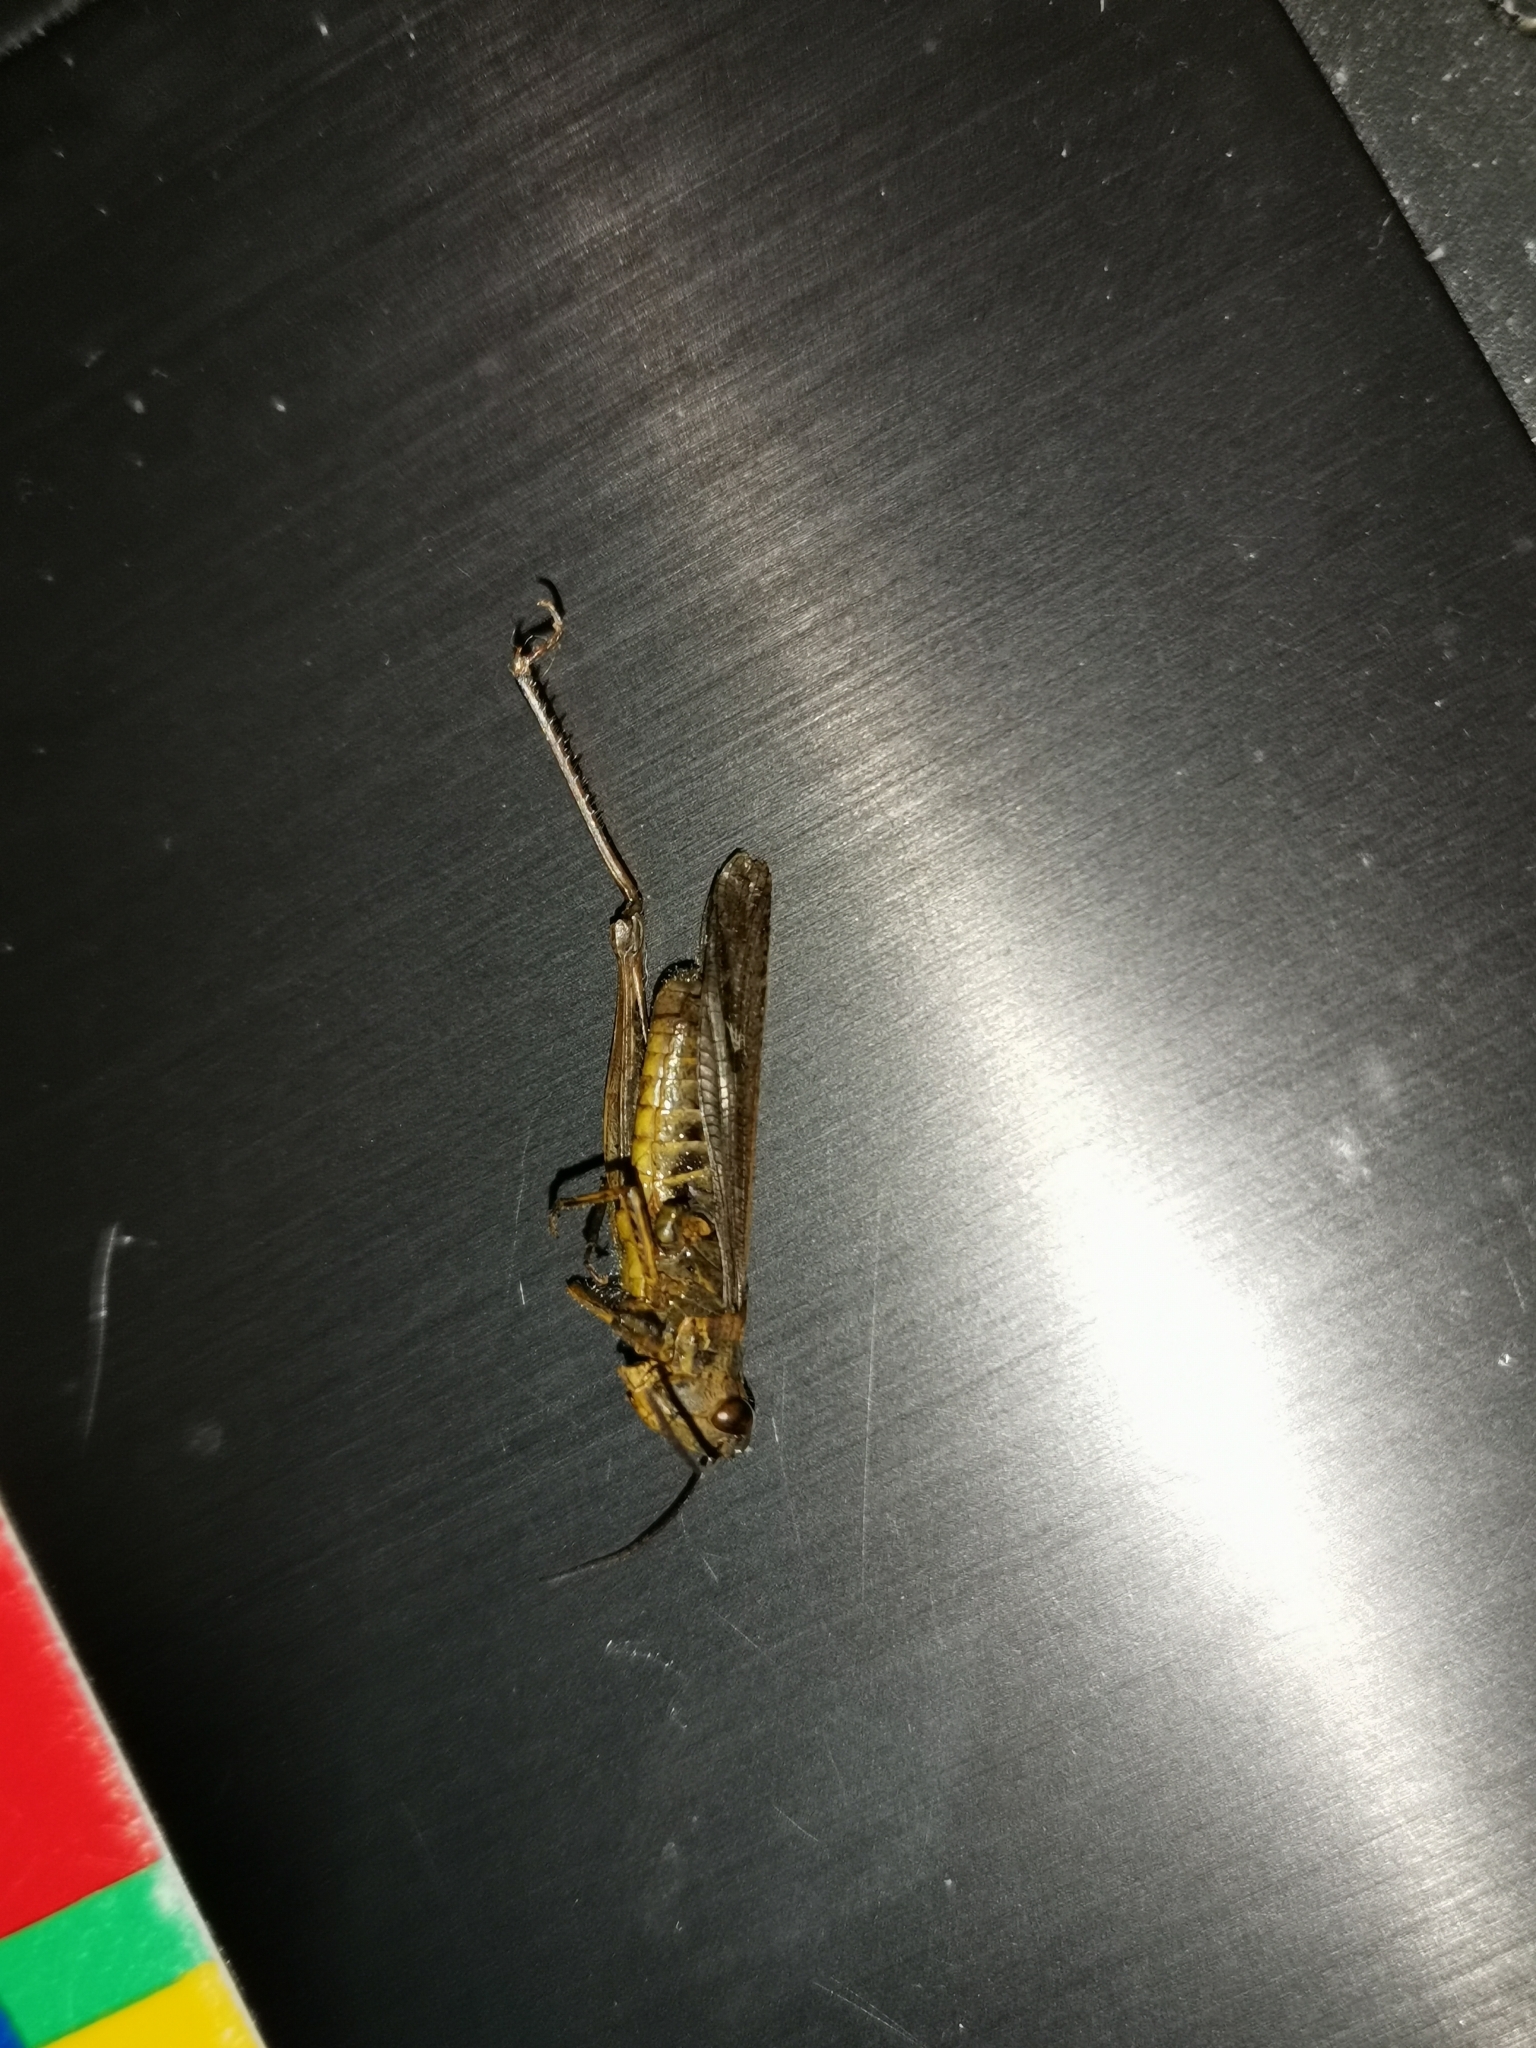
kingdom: Animalia
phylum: Arthropoda
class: Insecta
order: Orthoptera
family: Acrididae
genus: Chorthippus
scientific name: Chorthippus brunneus
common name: Field grasshopper
